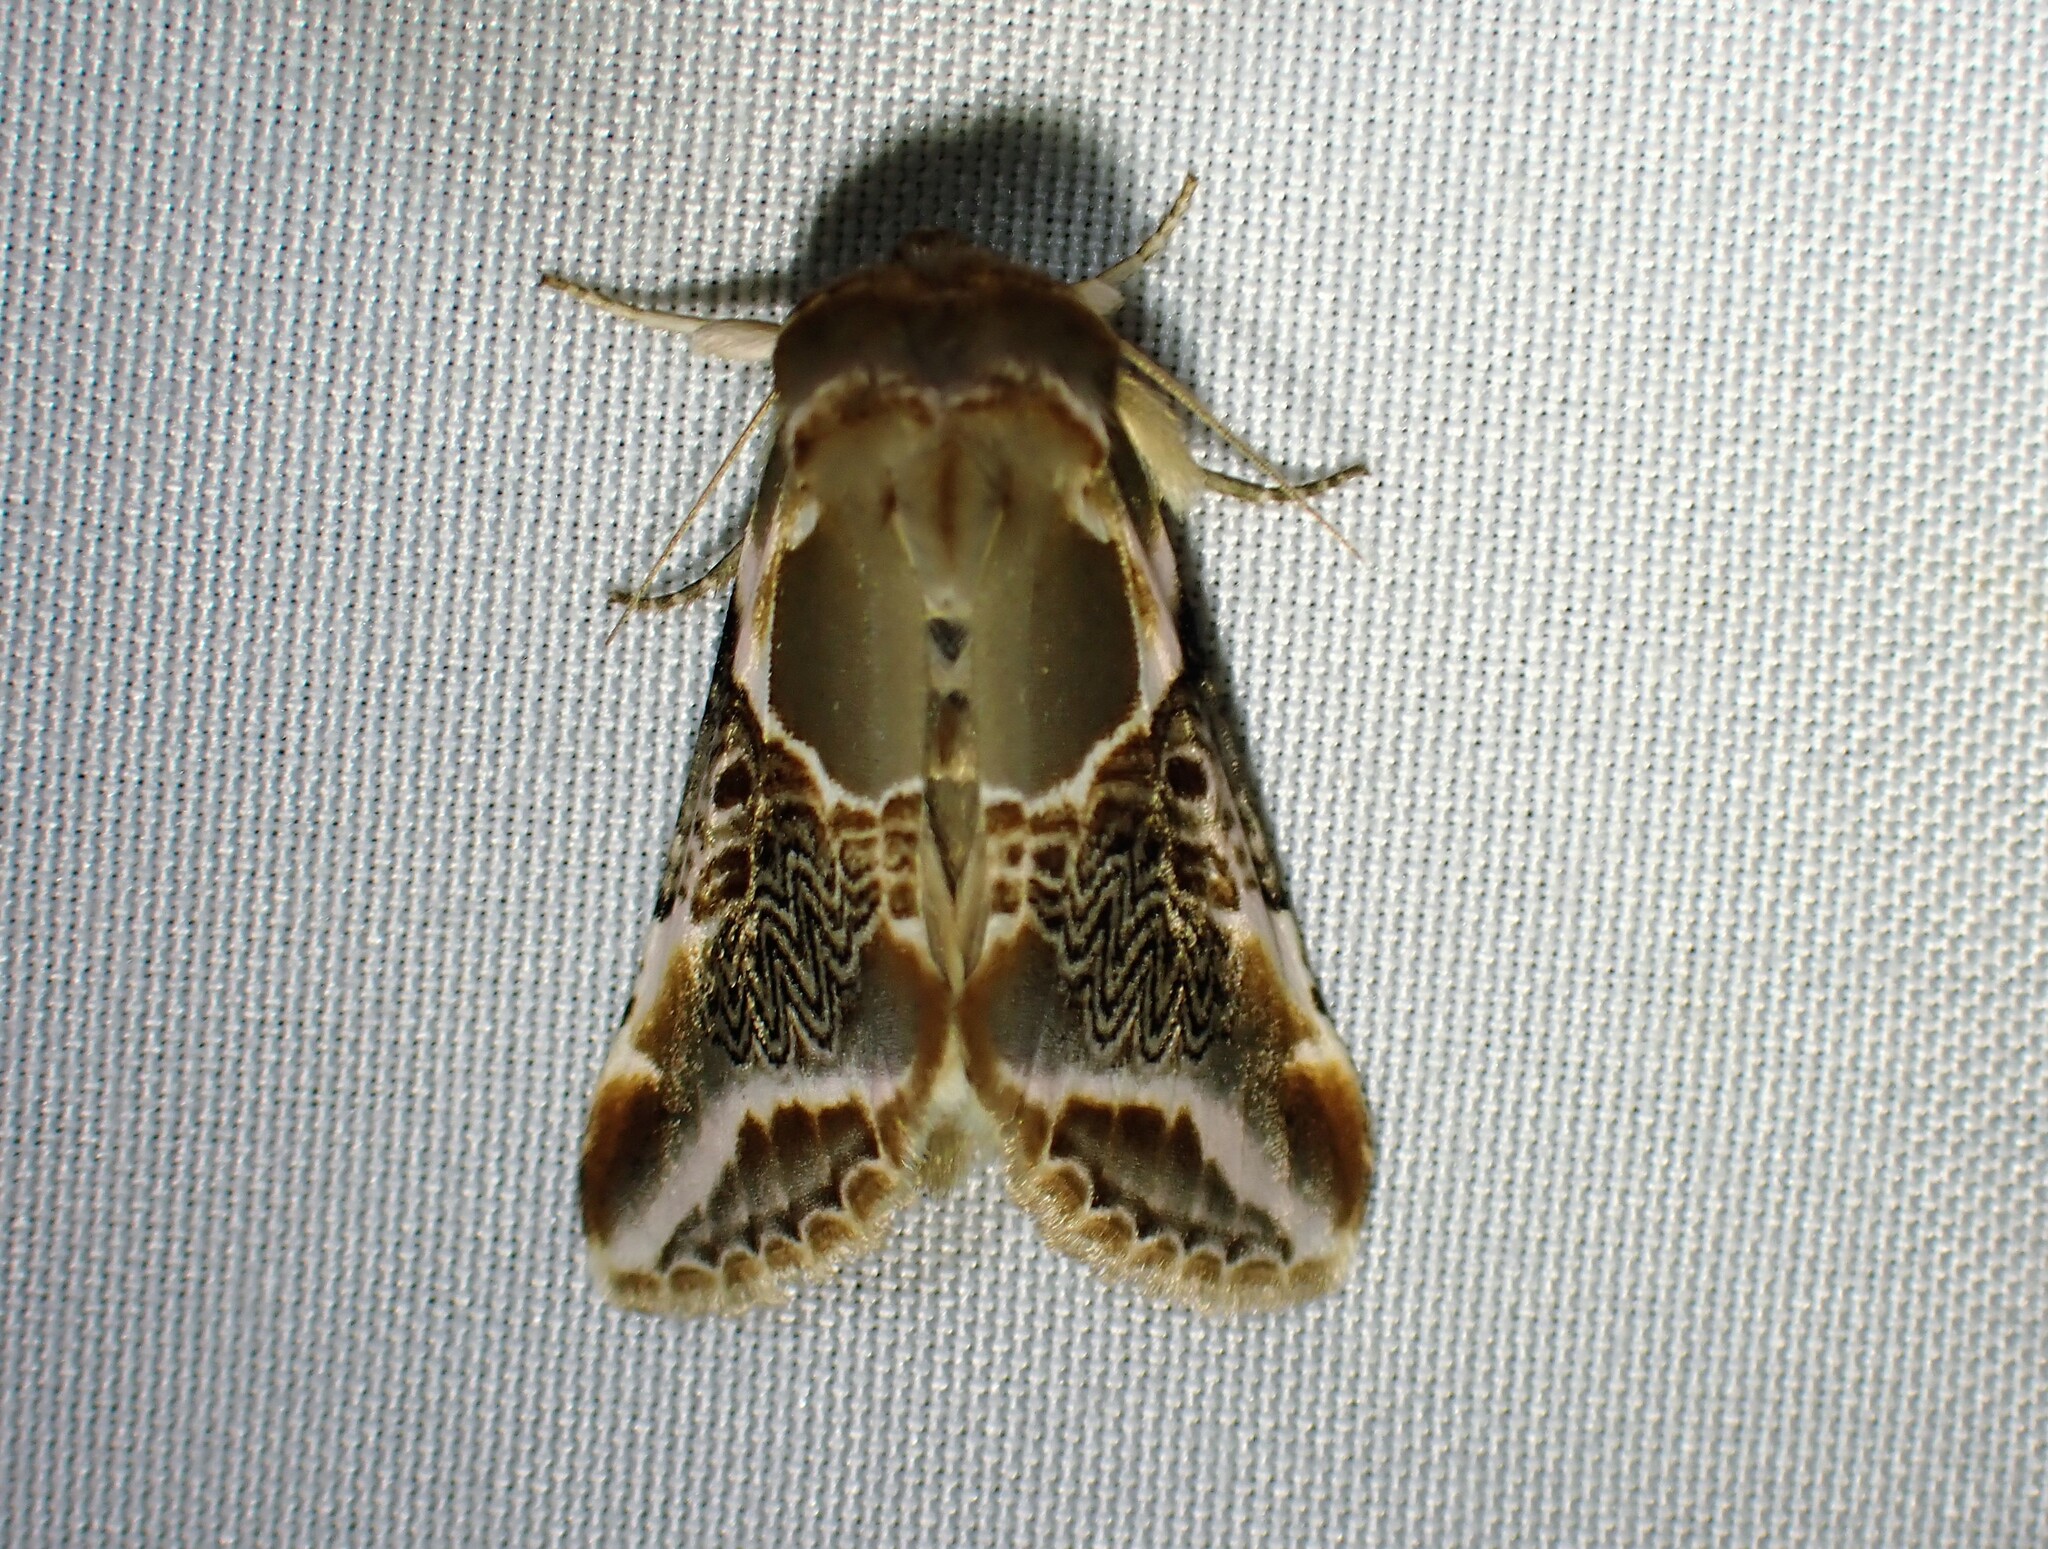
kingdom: Animalia
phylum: Arthropoda
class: Insecta
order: Lepidoptera
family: Drepanidae
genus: Habrosyne
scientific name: Habrosyne scripta
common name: Lettered habrosyne moth
